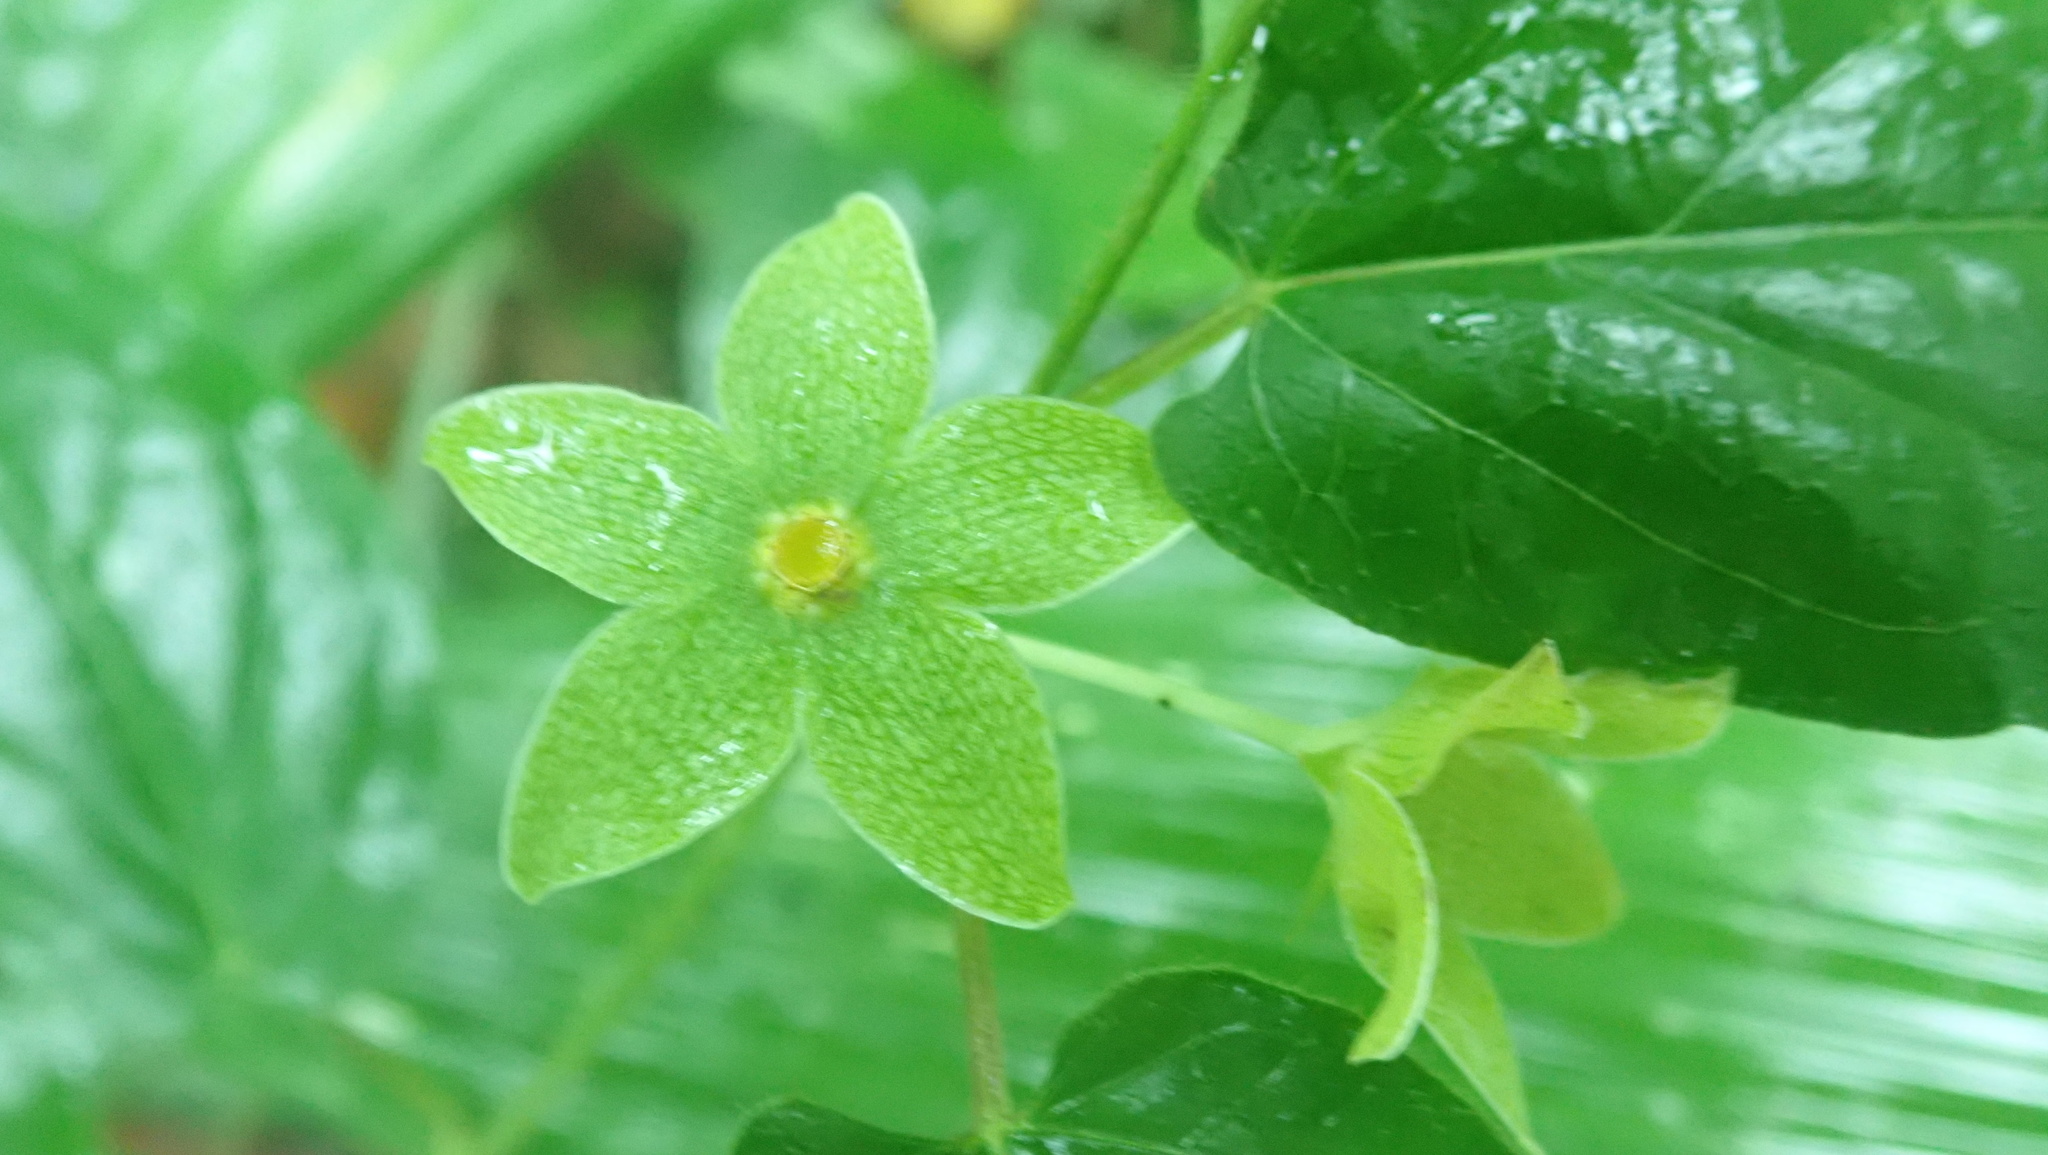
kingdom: Plantae
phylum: Tracheophyta
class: Magnoliopsida
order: Gentianales
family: Apocynaceae
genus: Chloropetalum
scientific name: Chloropetalum denticulatum
